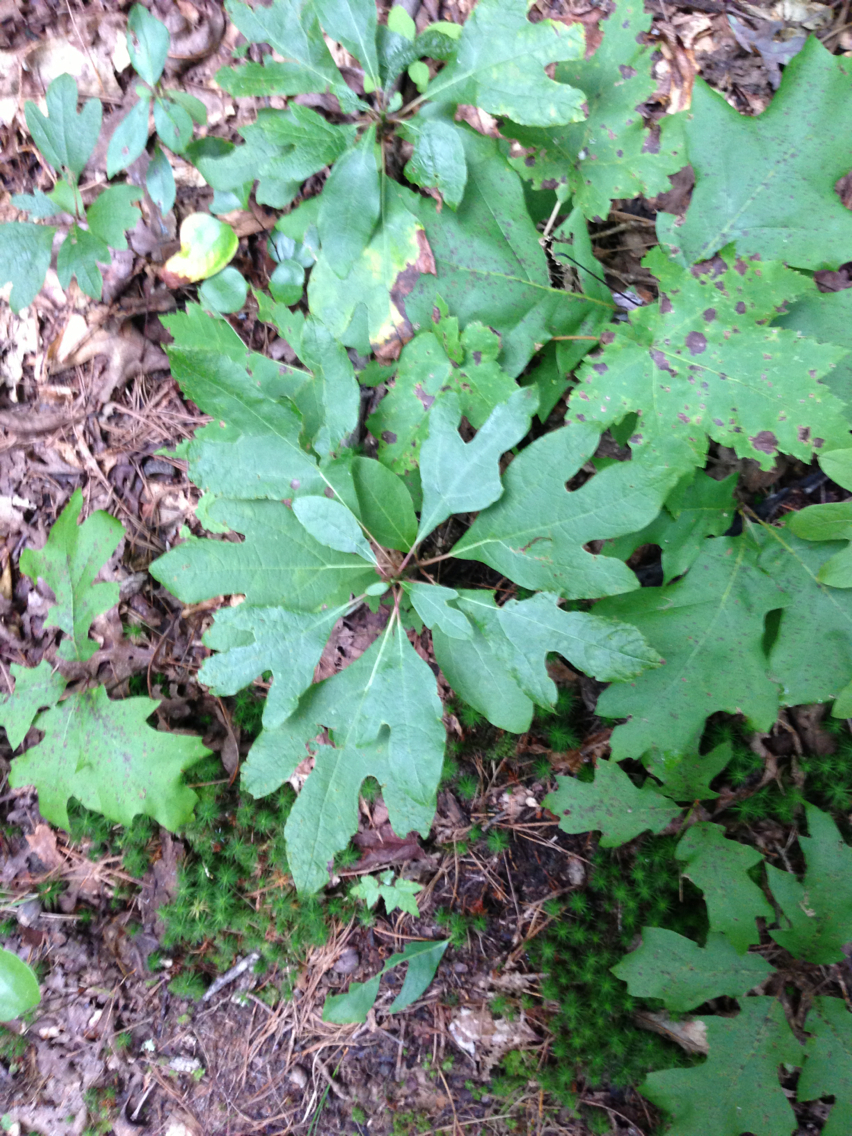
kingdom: Plantae
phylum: Tracheophyta
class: Magnoliopsida
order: Laurales
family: Lauraceae
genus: Sassafras
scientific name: Sassafras albidum
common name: Sassafras
